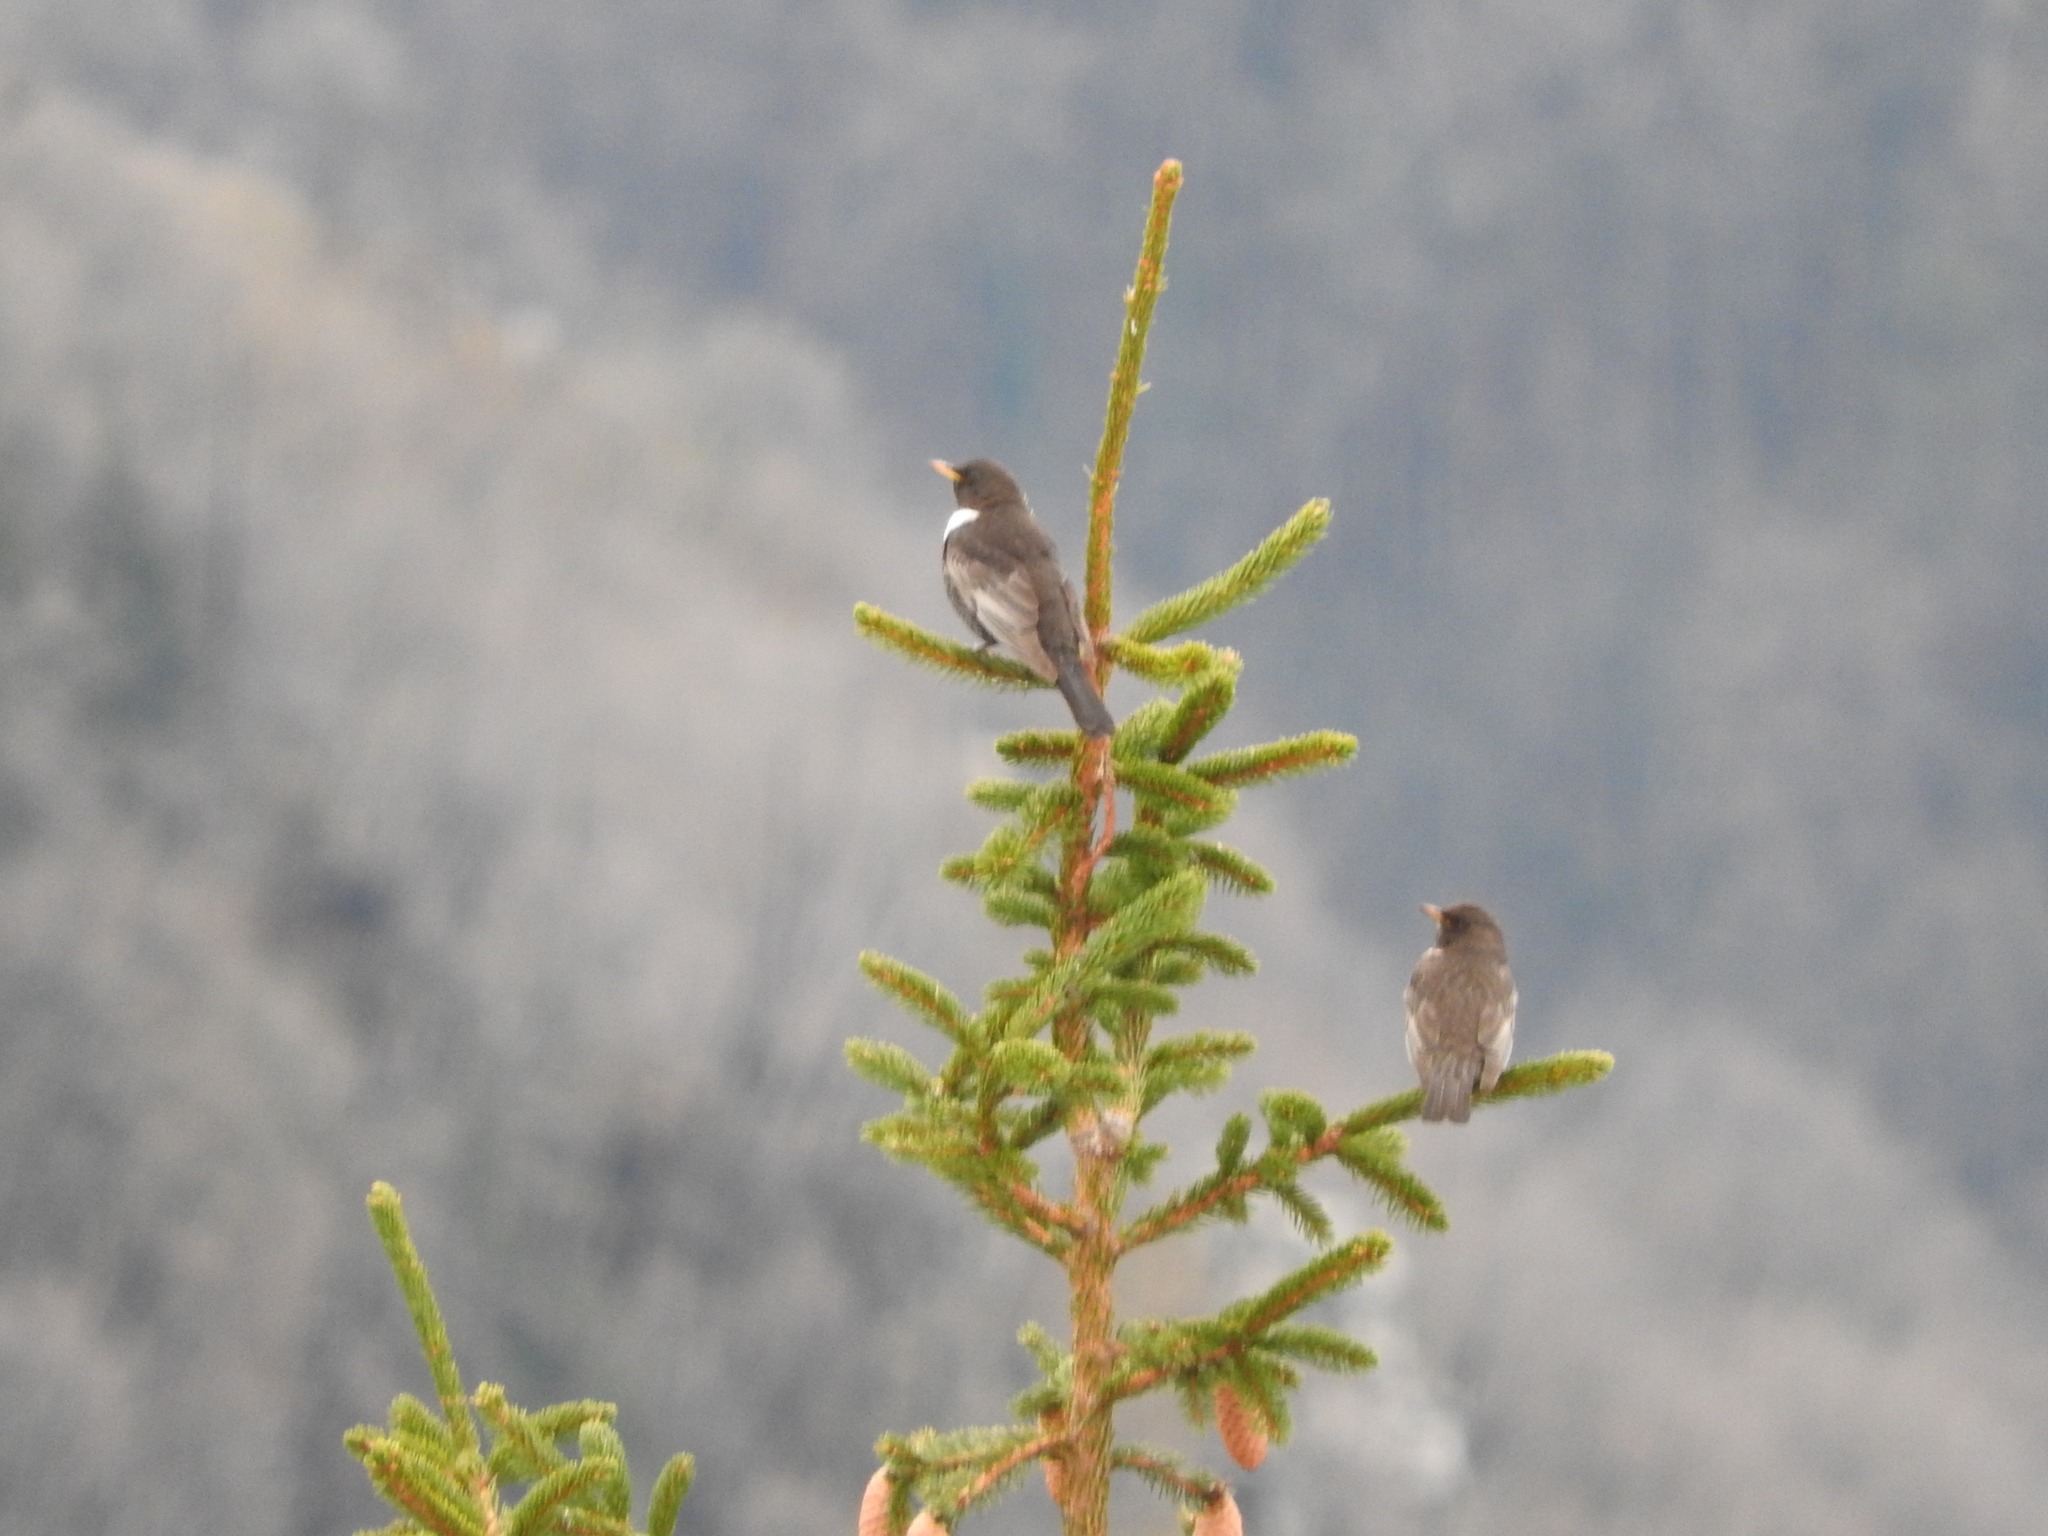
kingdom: Animalia
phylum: Chordata
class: Aves
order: Passeriformes
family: Turdidae
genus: Turdus
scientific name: Turdus torquatus
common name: Ring ouzel
